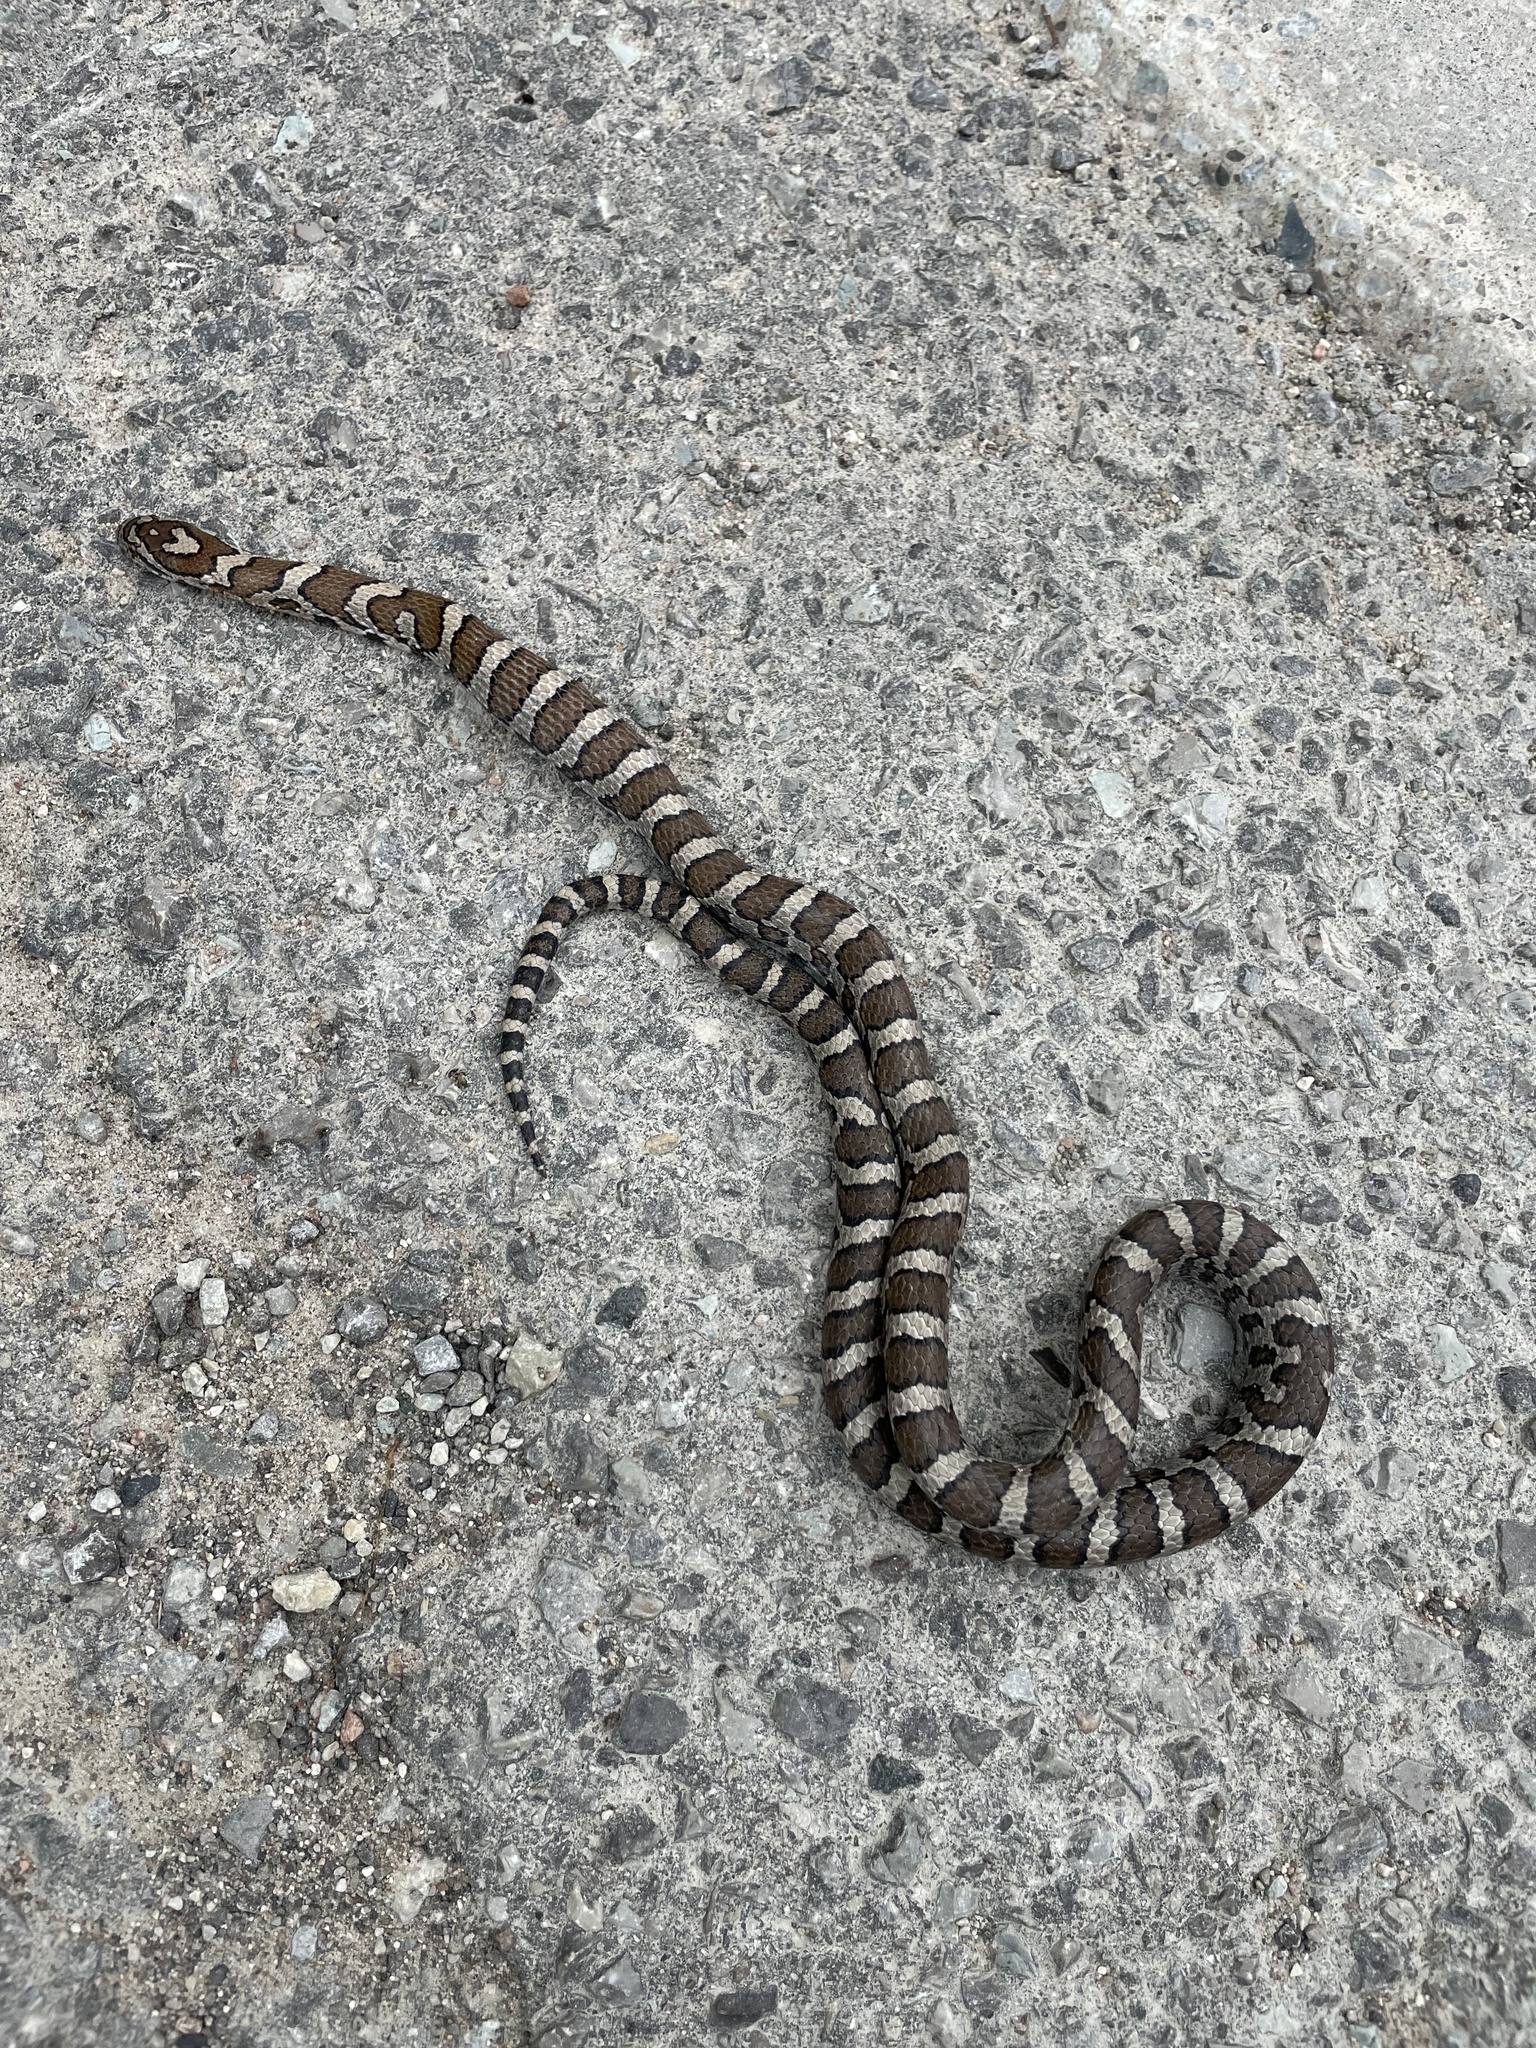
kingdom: Animalia
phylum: Chordata
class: Squamata
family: Colubridae
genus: Lampropeltis
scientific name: Lampropeltis triangulum
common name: Eastern milksnake
